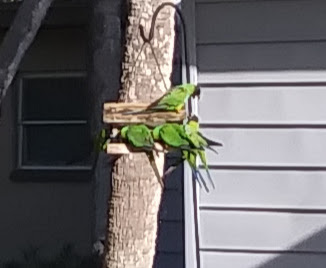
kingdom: Animalia
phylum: Chordata
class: Aves
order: Psittaciformes
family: Psittacidae
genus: Nandayus
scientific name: Nandayus nenday
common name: Nanday parakeet
